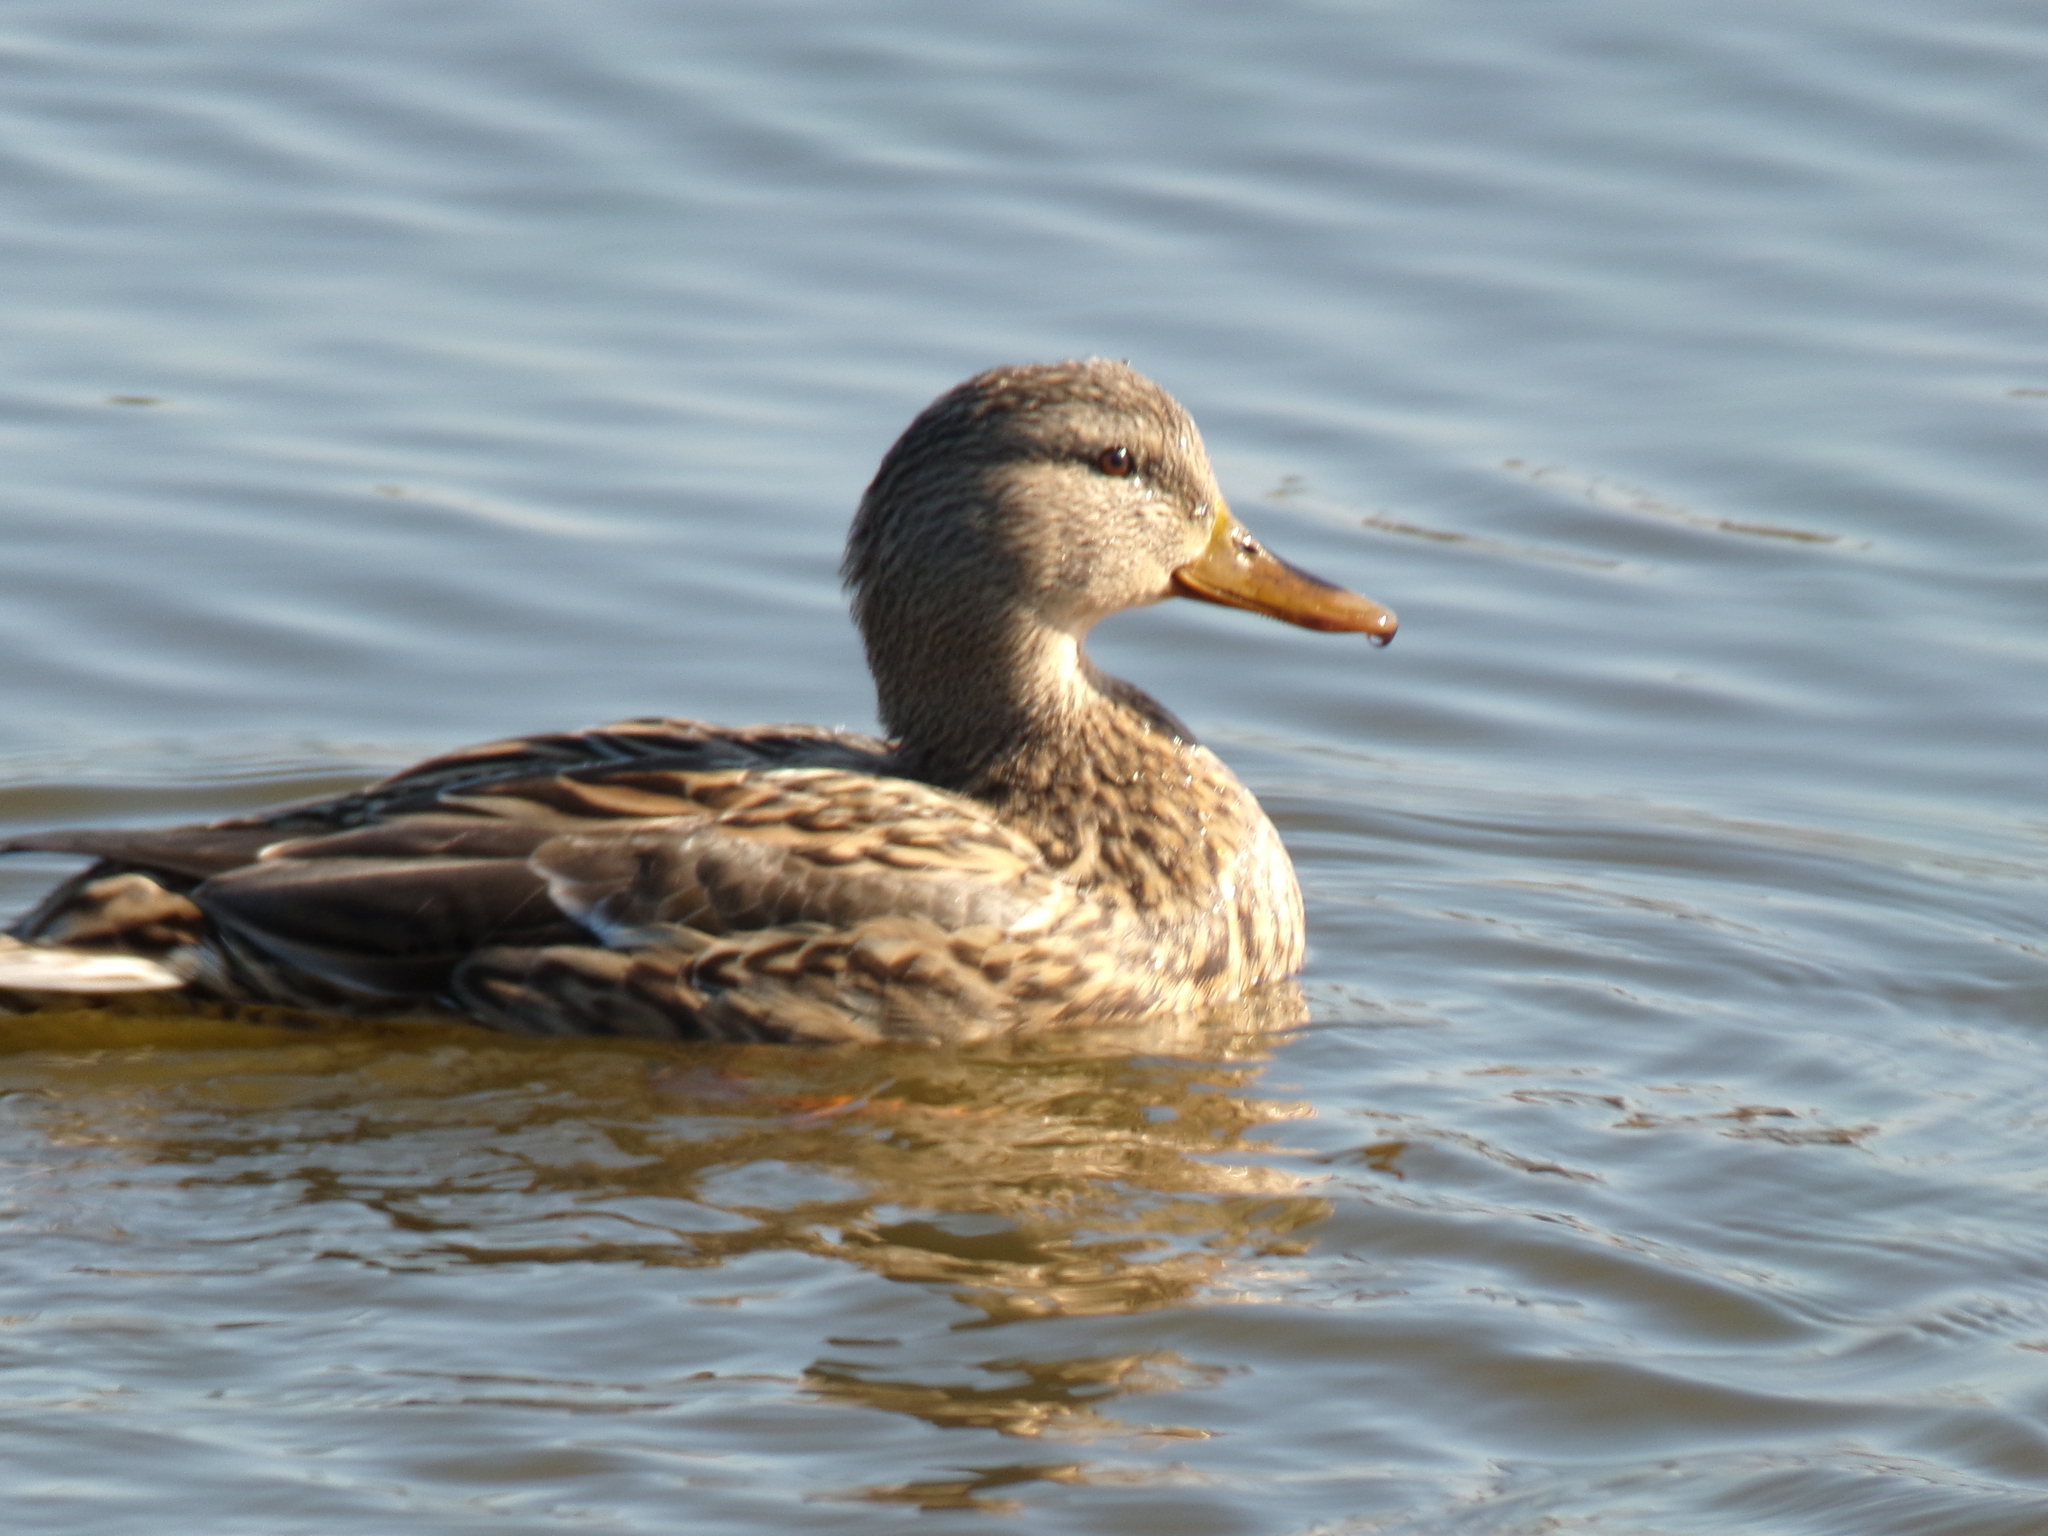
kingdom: Animalia
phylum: Chordata
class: Aves
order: Anseriformes
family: Anatidae
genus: Anas
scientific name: Anas platyrhynchos
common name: Mallard
